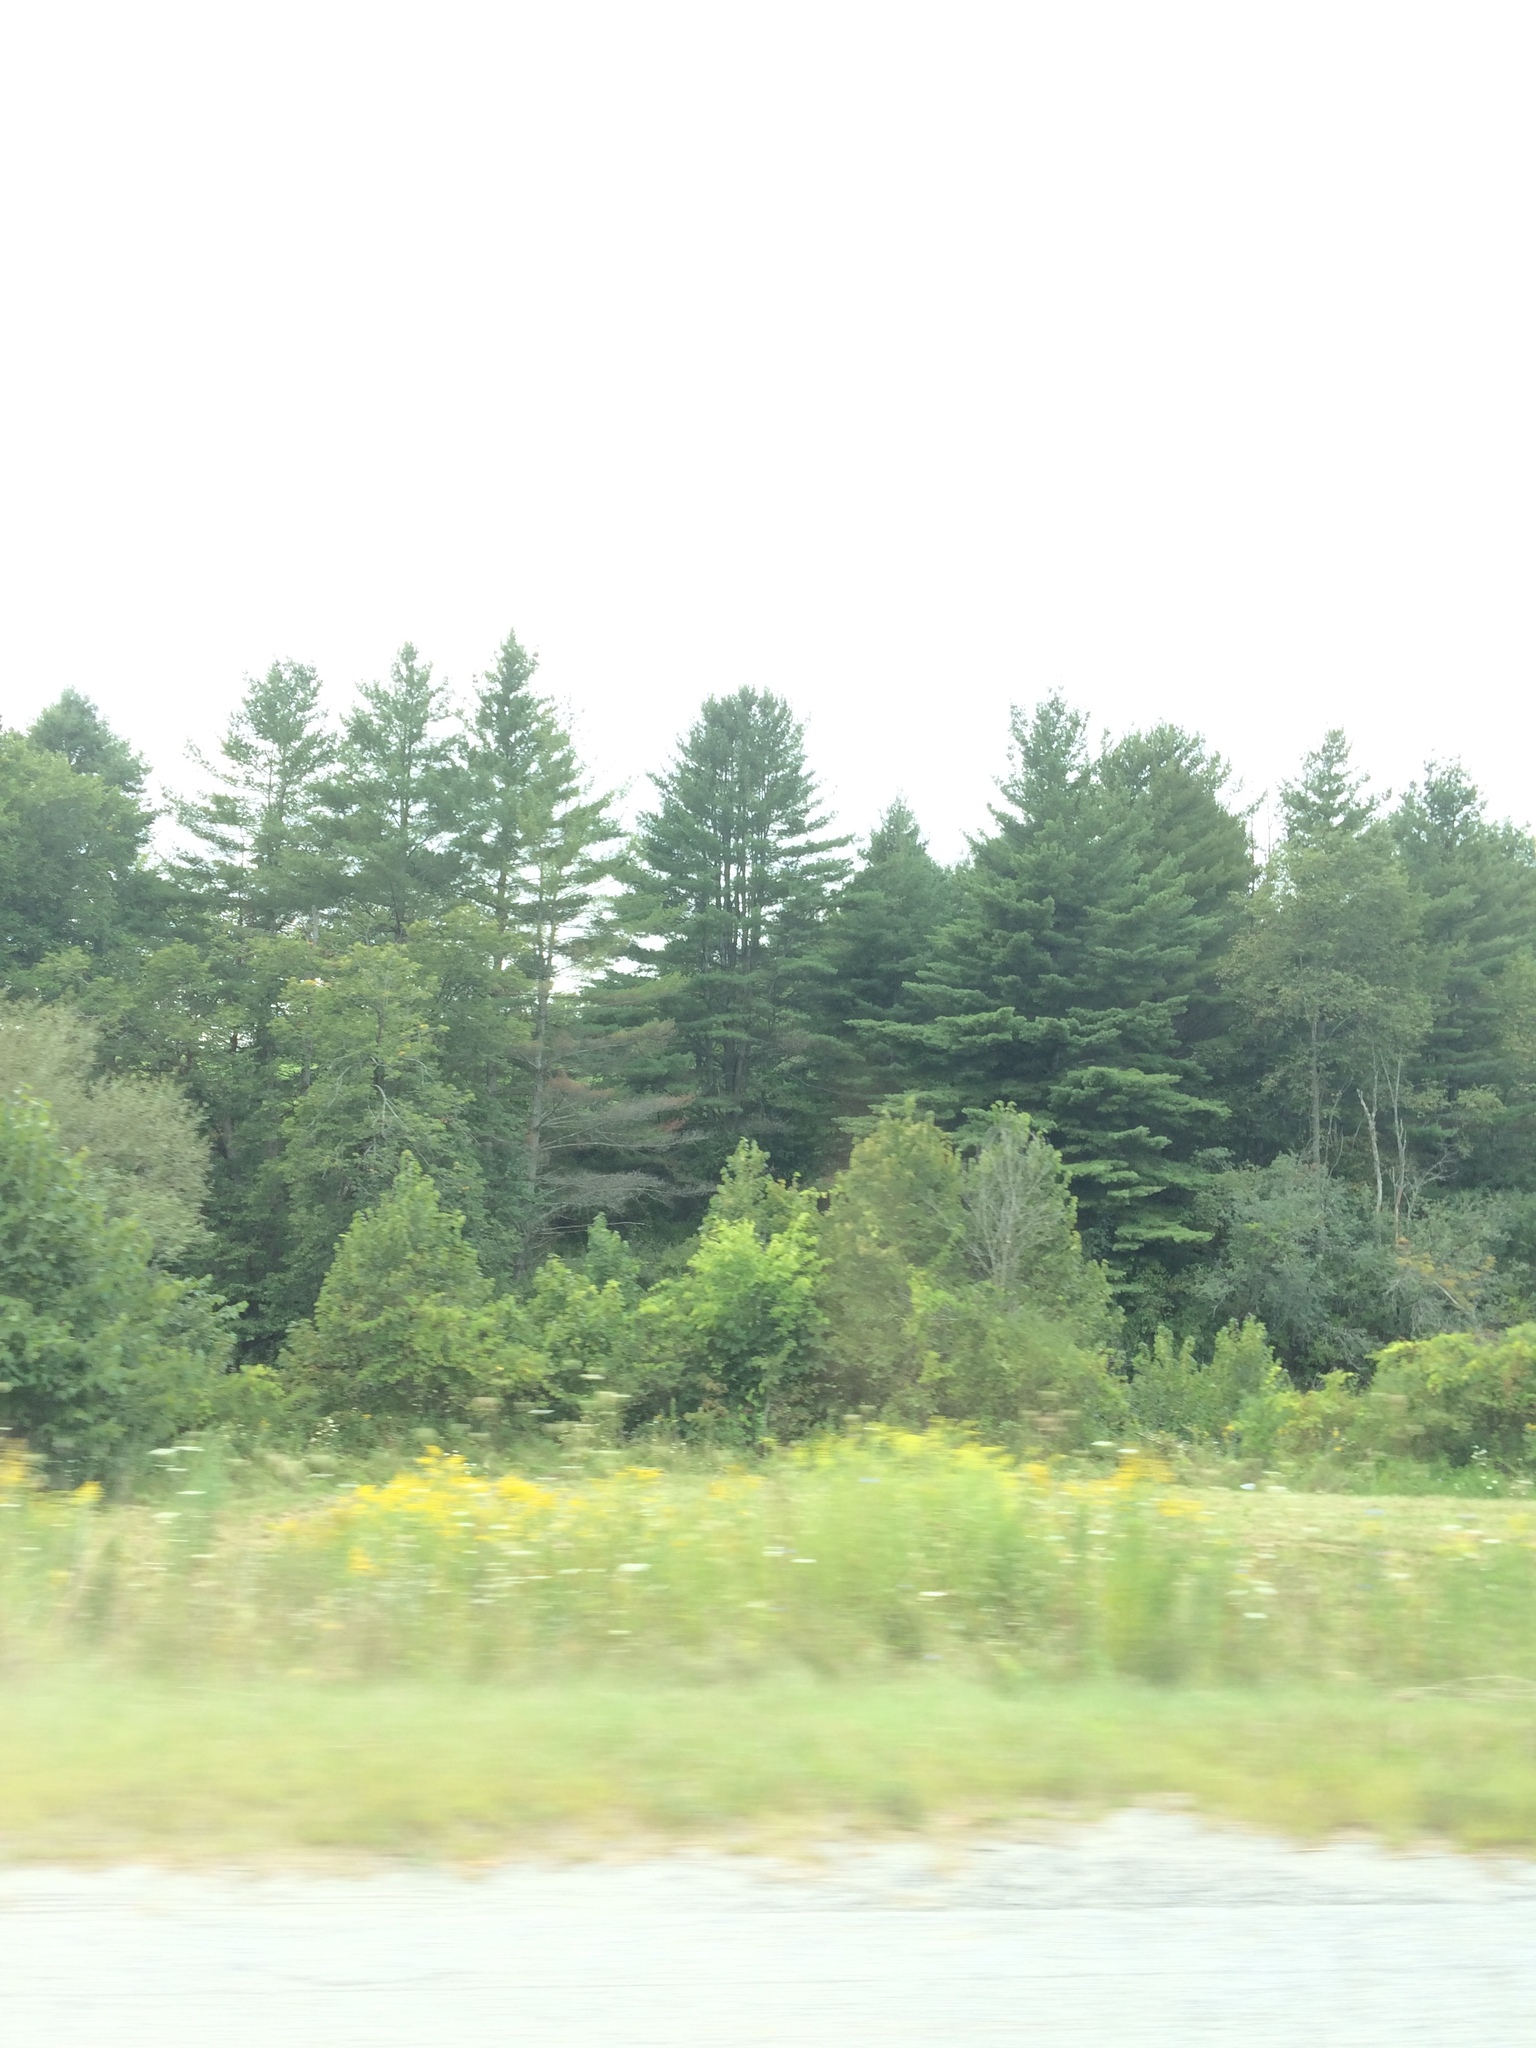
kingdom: Plantae
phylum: Tracheophyta
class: Pinopsida
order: Pinales
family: Pinaceae
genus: Pinus
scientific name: Pinus strobus
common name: Weymouth pine
